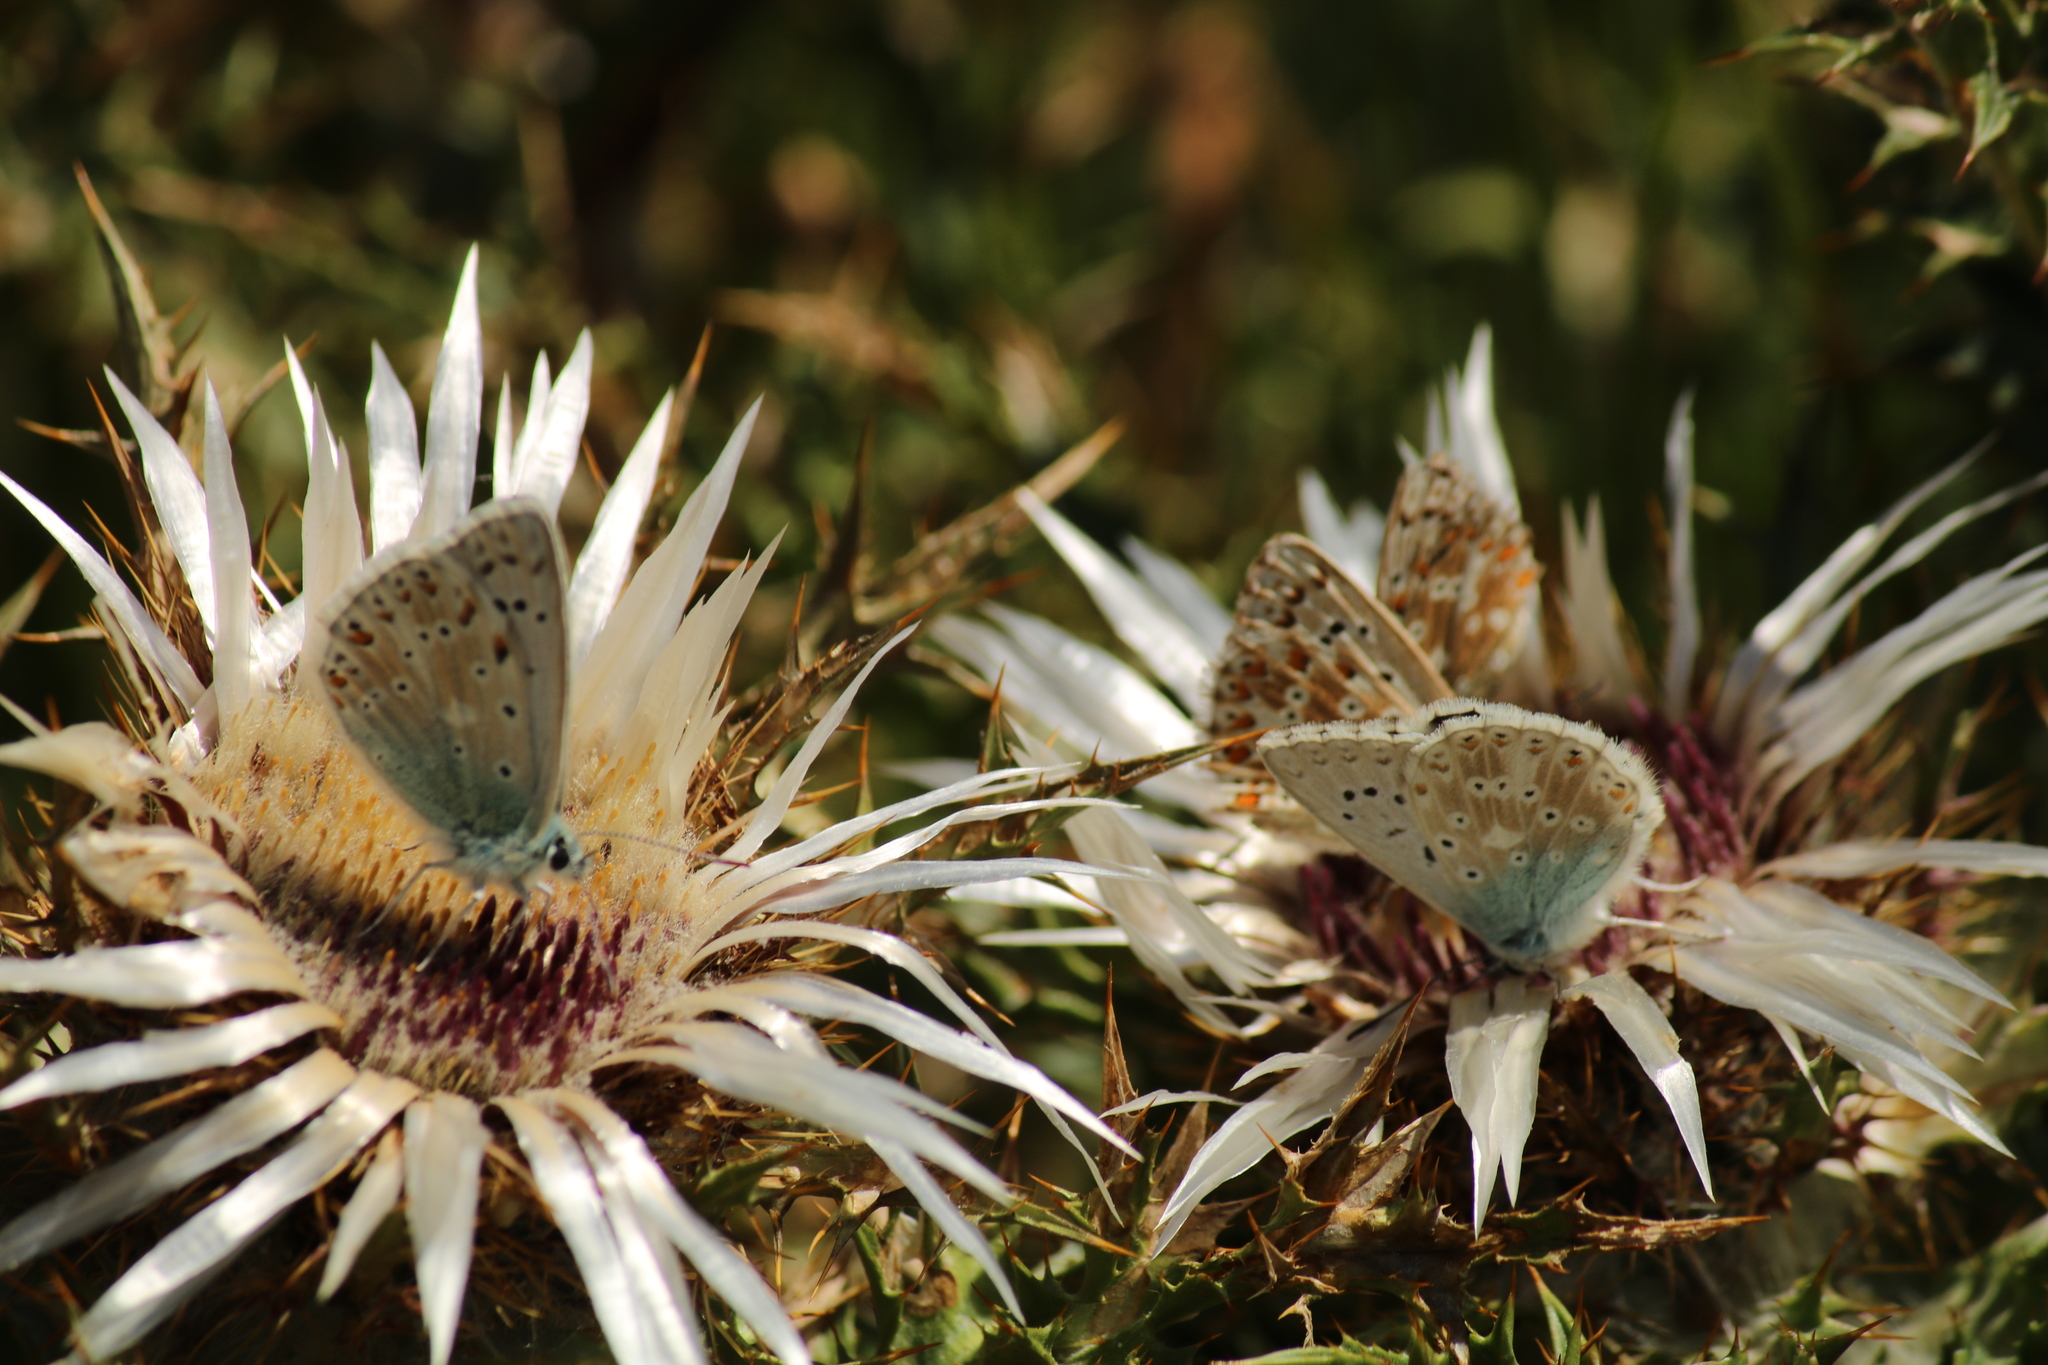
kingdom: Plantae
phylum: Tracheophyta
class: Magnoliopsida
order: Asterales
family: Asteraceae
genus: Carlina
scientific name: Carlina acaulis
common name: Stemless carline thistle
